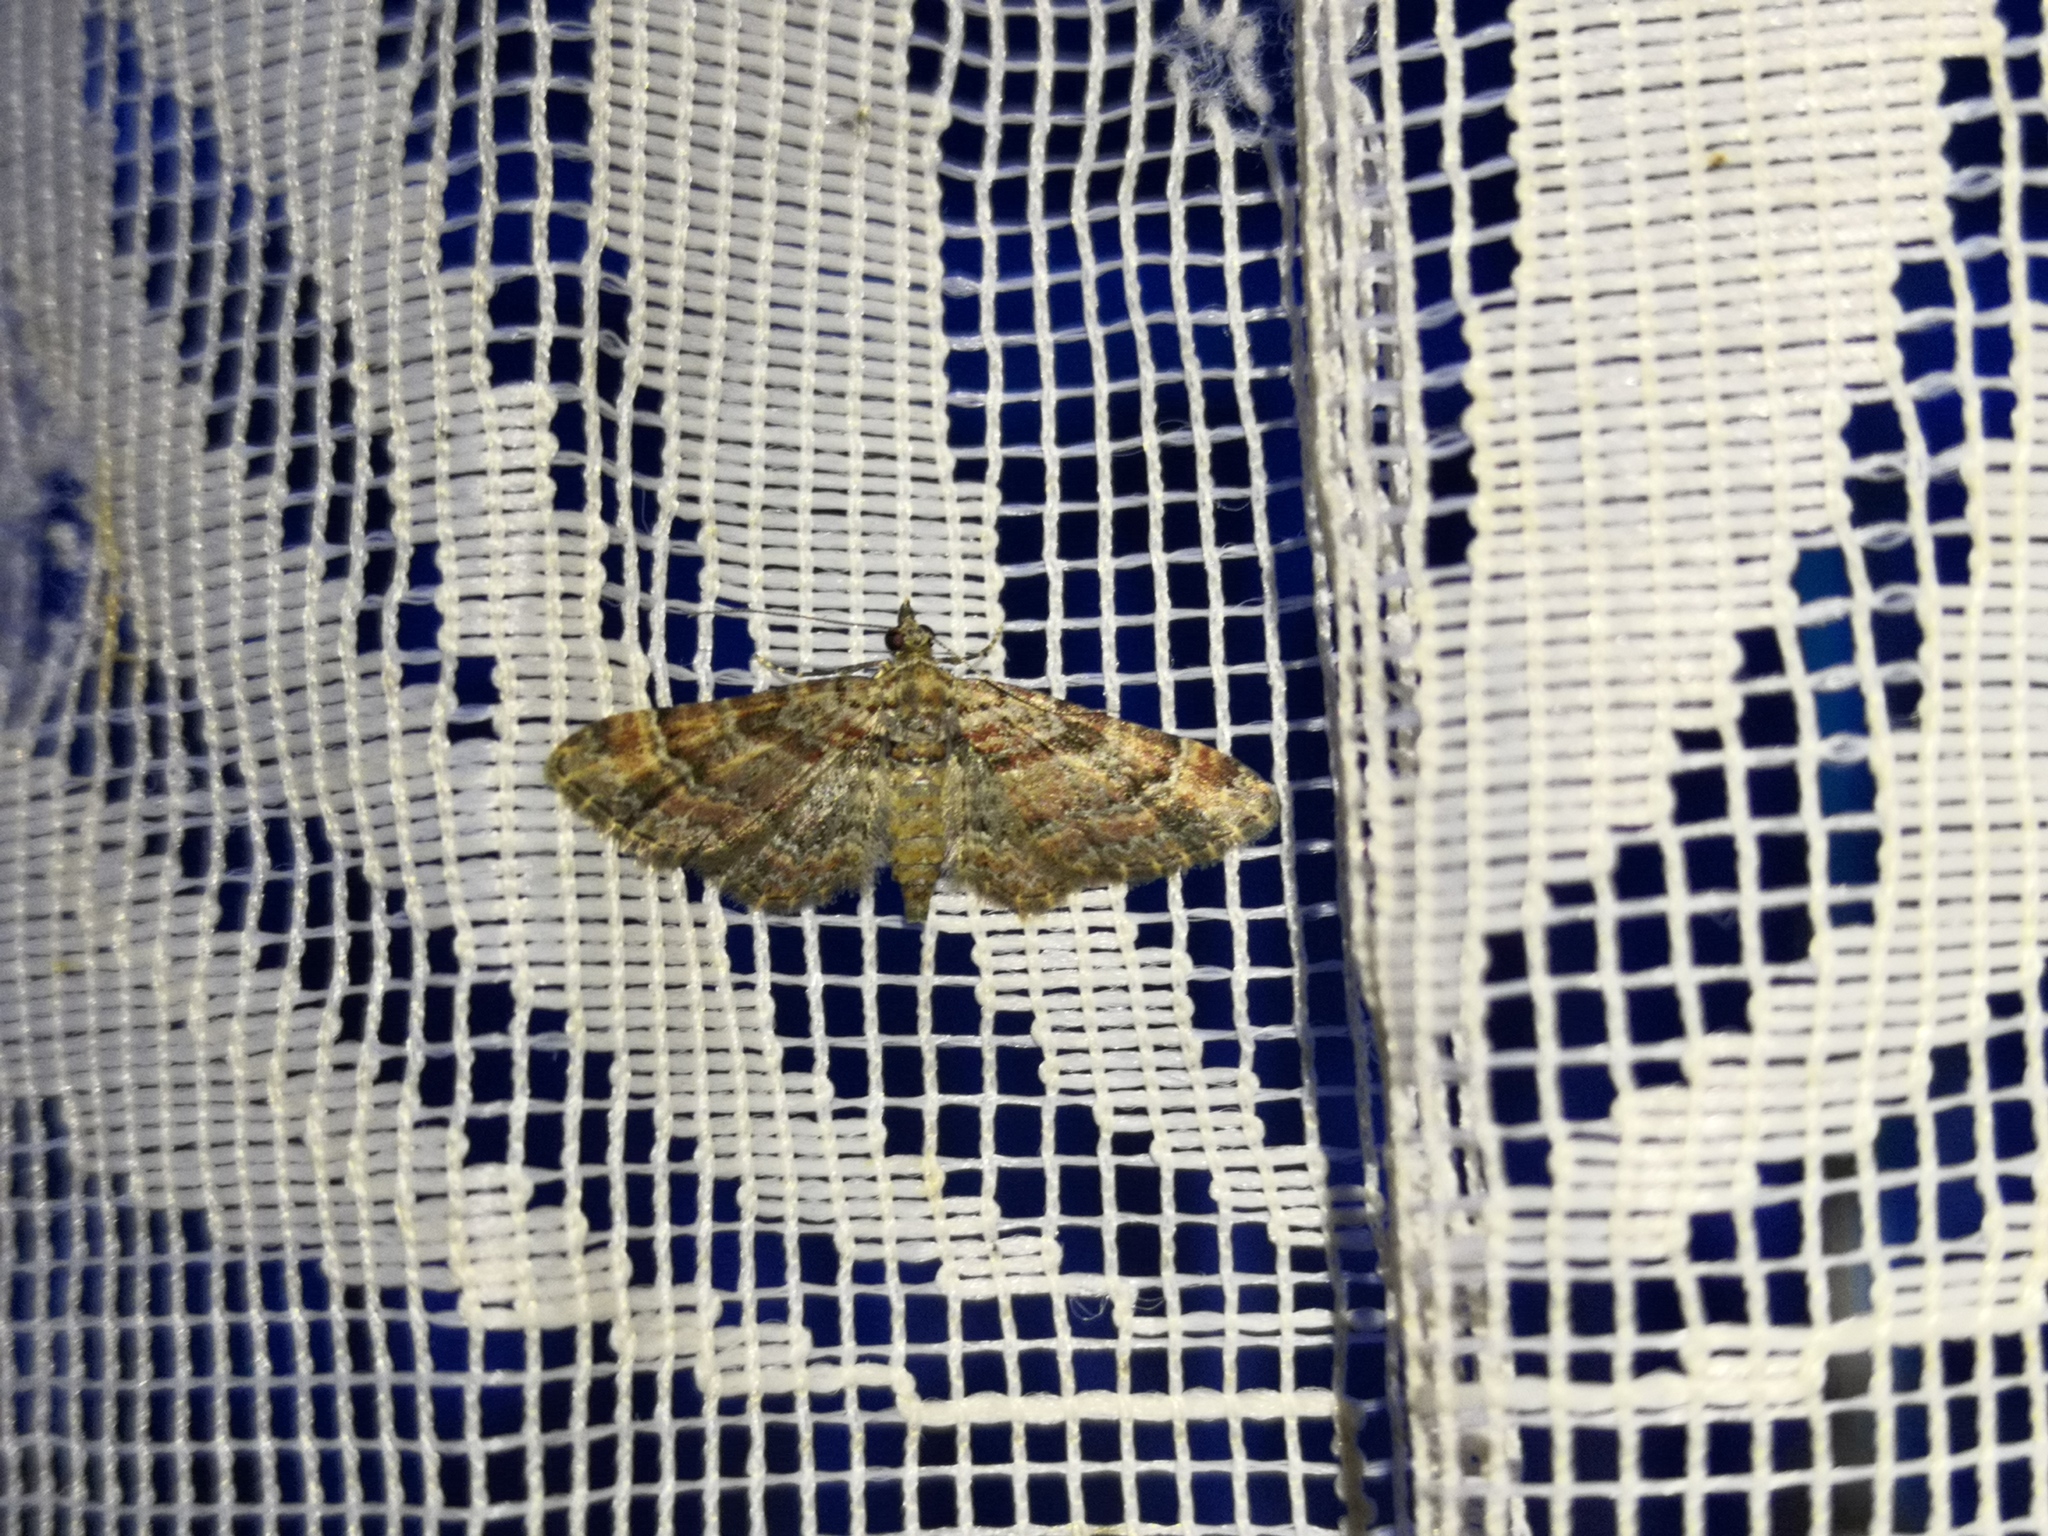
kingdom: Animalia
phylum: Arthropoda
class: Insecta
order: Lepidoptera
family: Geometridae
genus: Gymnoscelis
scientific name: Gymnoscelis rufifasciata
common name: Double-striped pug
